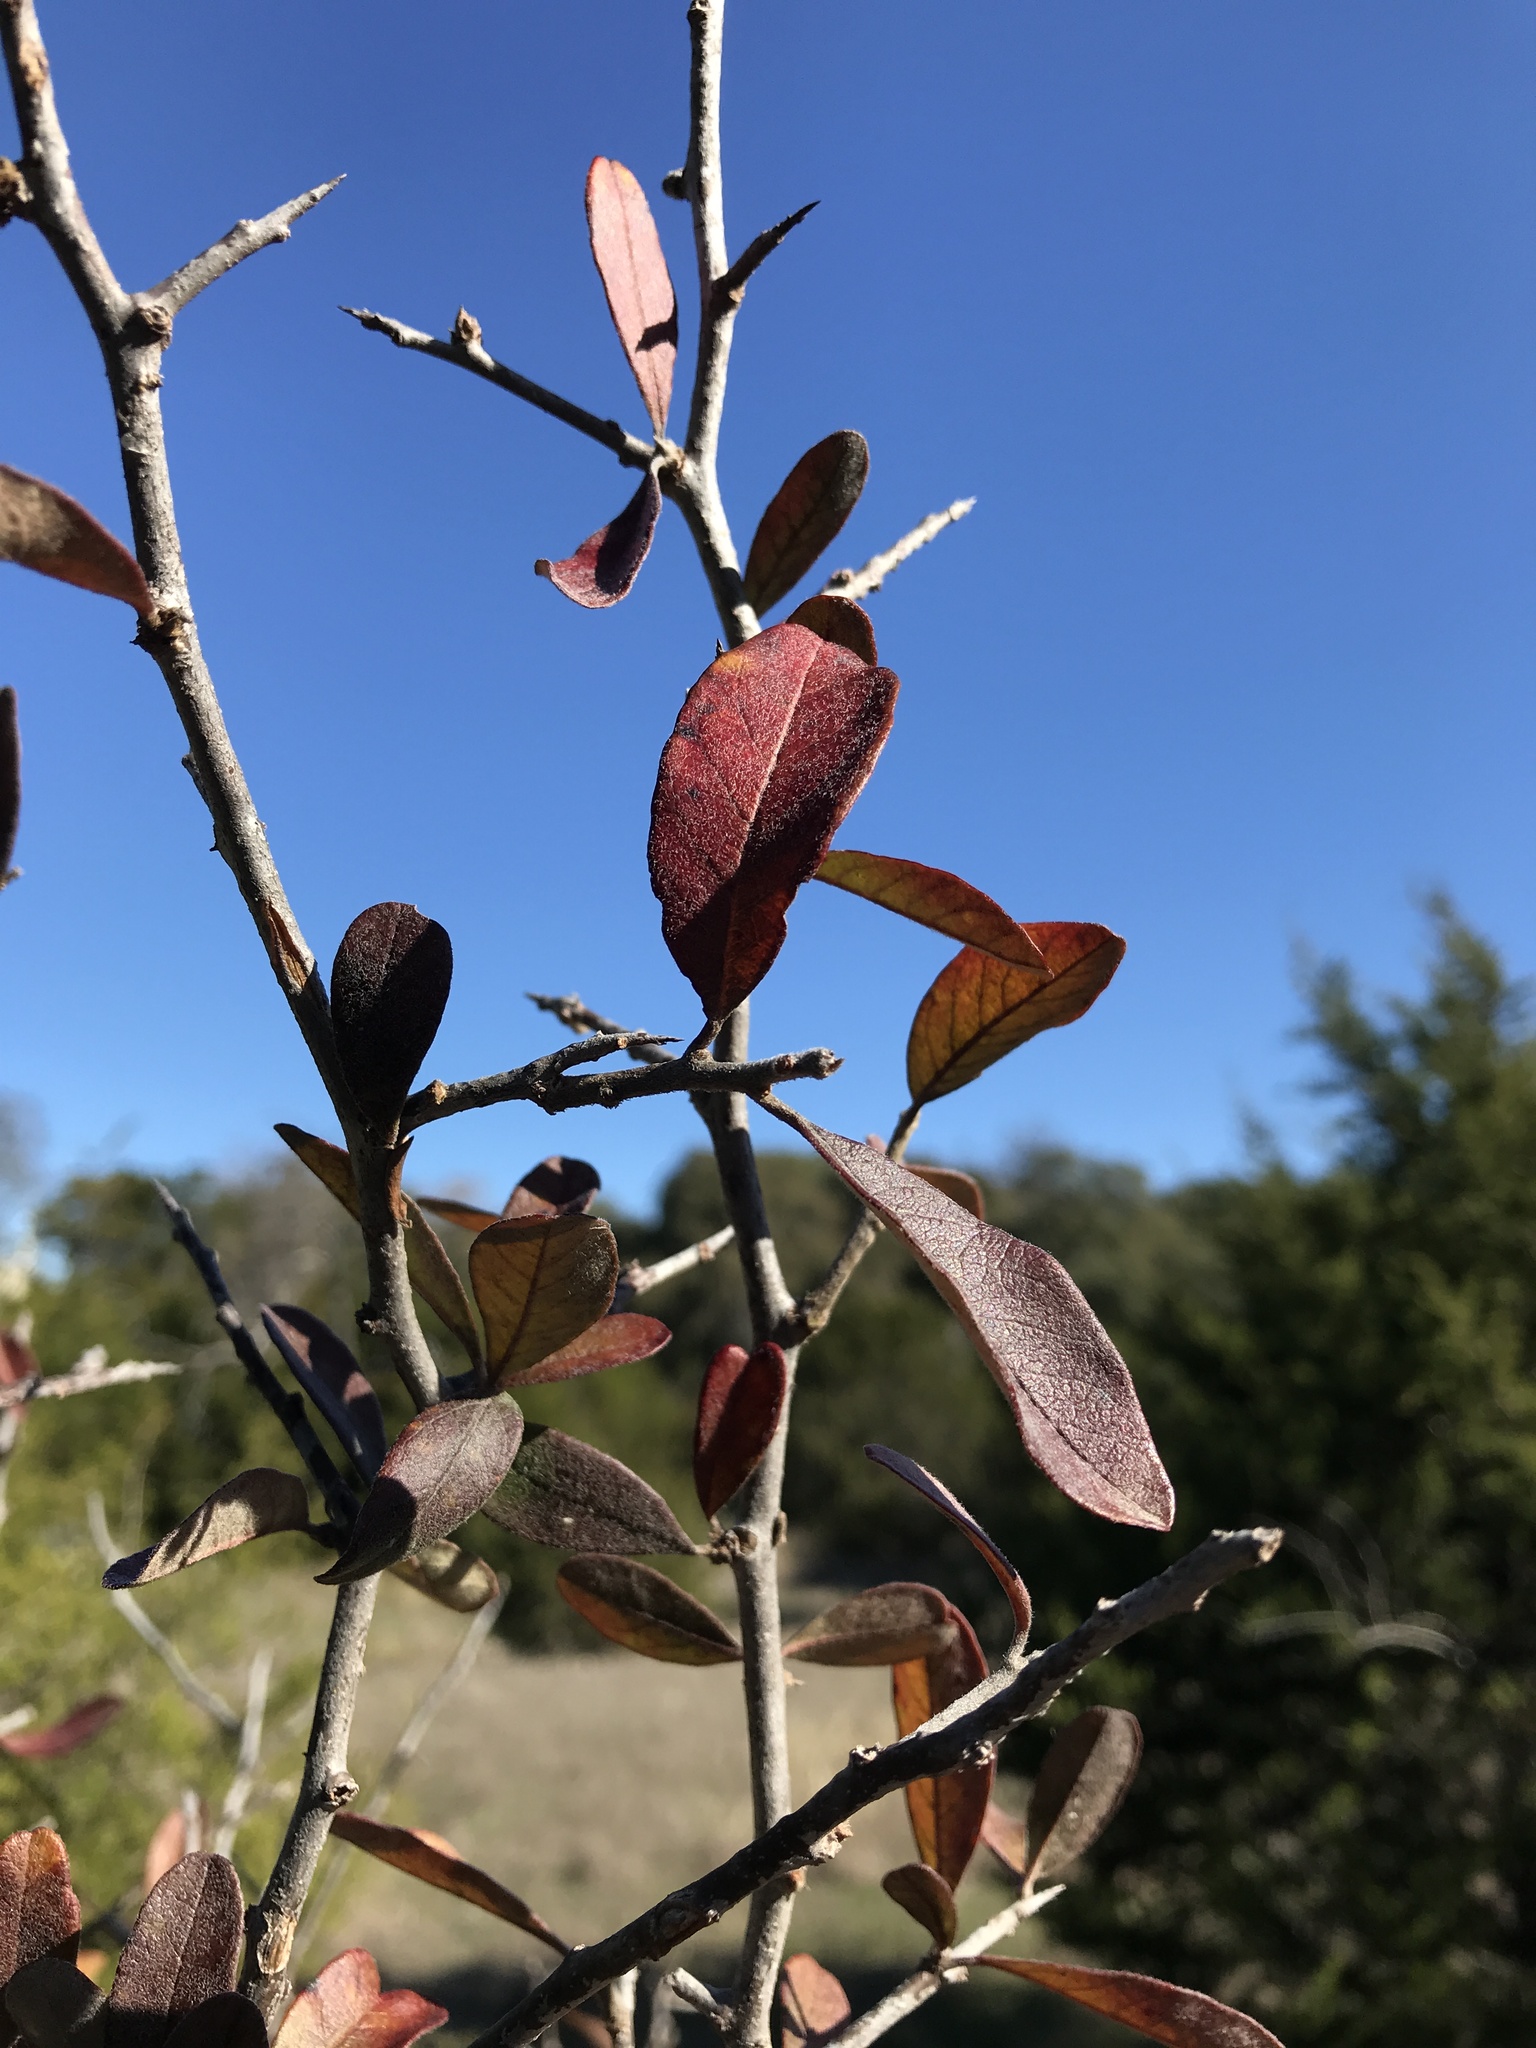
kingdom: Plantae
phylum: Tracheophyta
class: Magnoliopsida
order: Ericales
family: Sapotaceae
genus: Sideroxylon
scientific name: Sideroxylon lanuginosum
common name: Chittamwood
